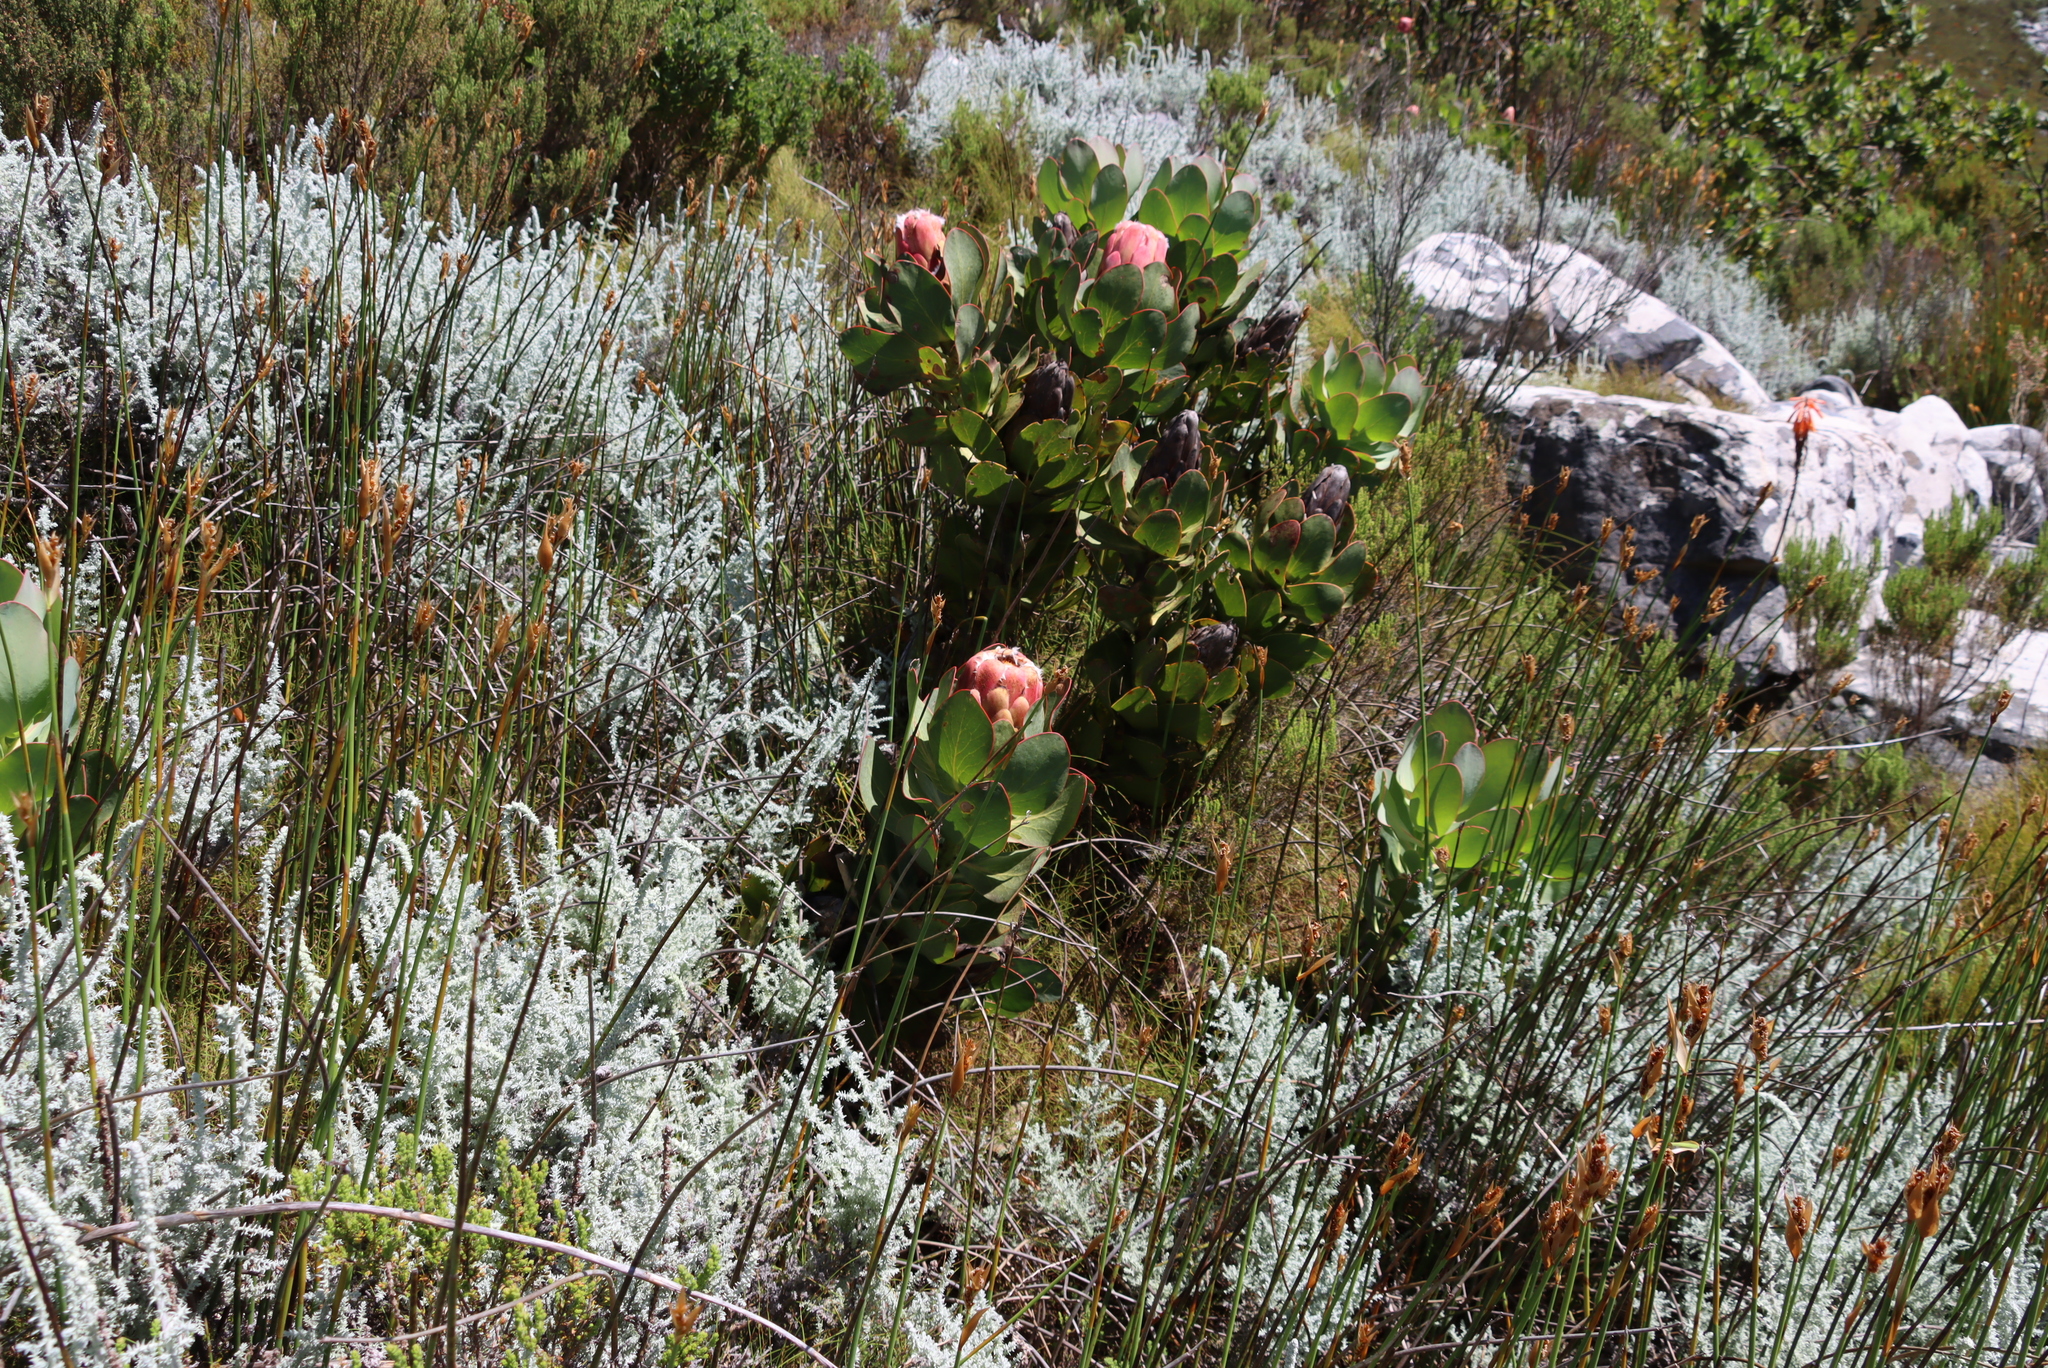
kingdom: Plantae
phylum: Tracheophyta
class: Magnoliopsida
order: Asterales
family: Asteraceae
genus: Seriphium
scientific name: Seriphium plumosum
